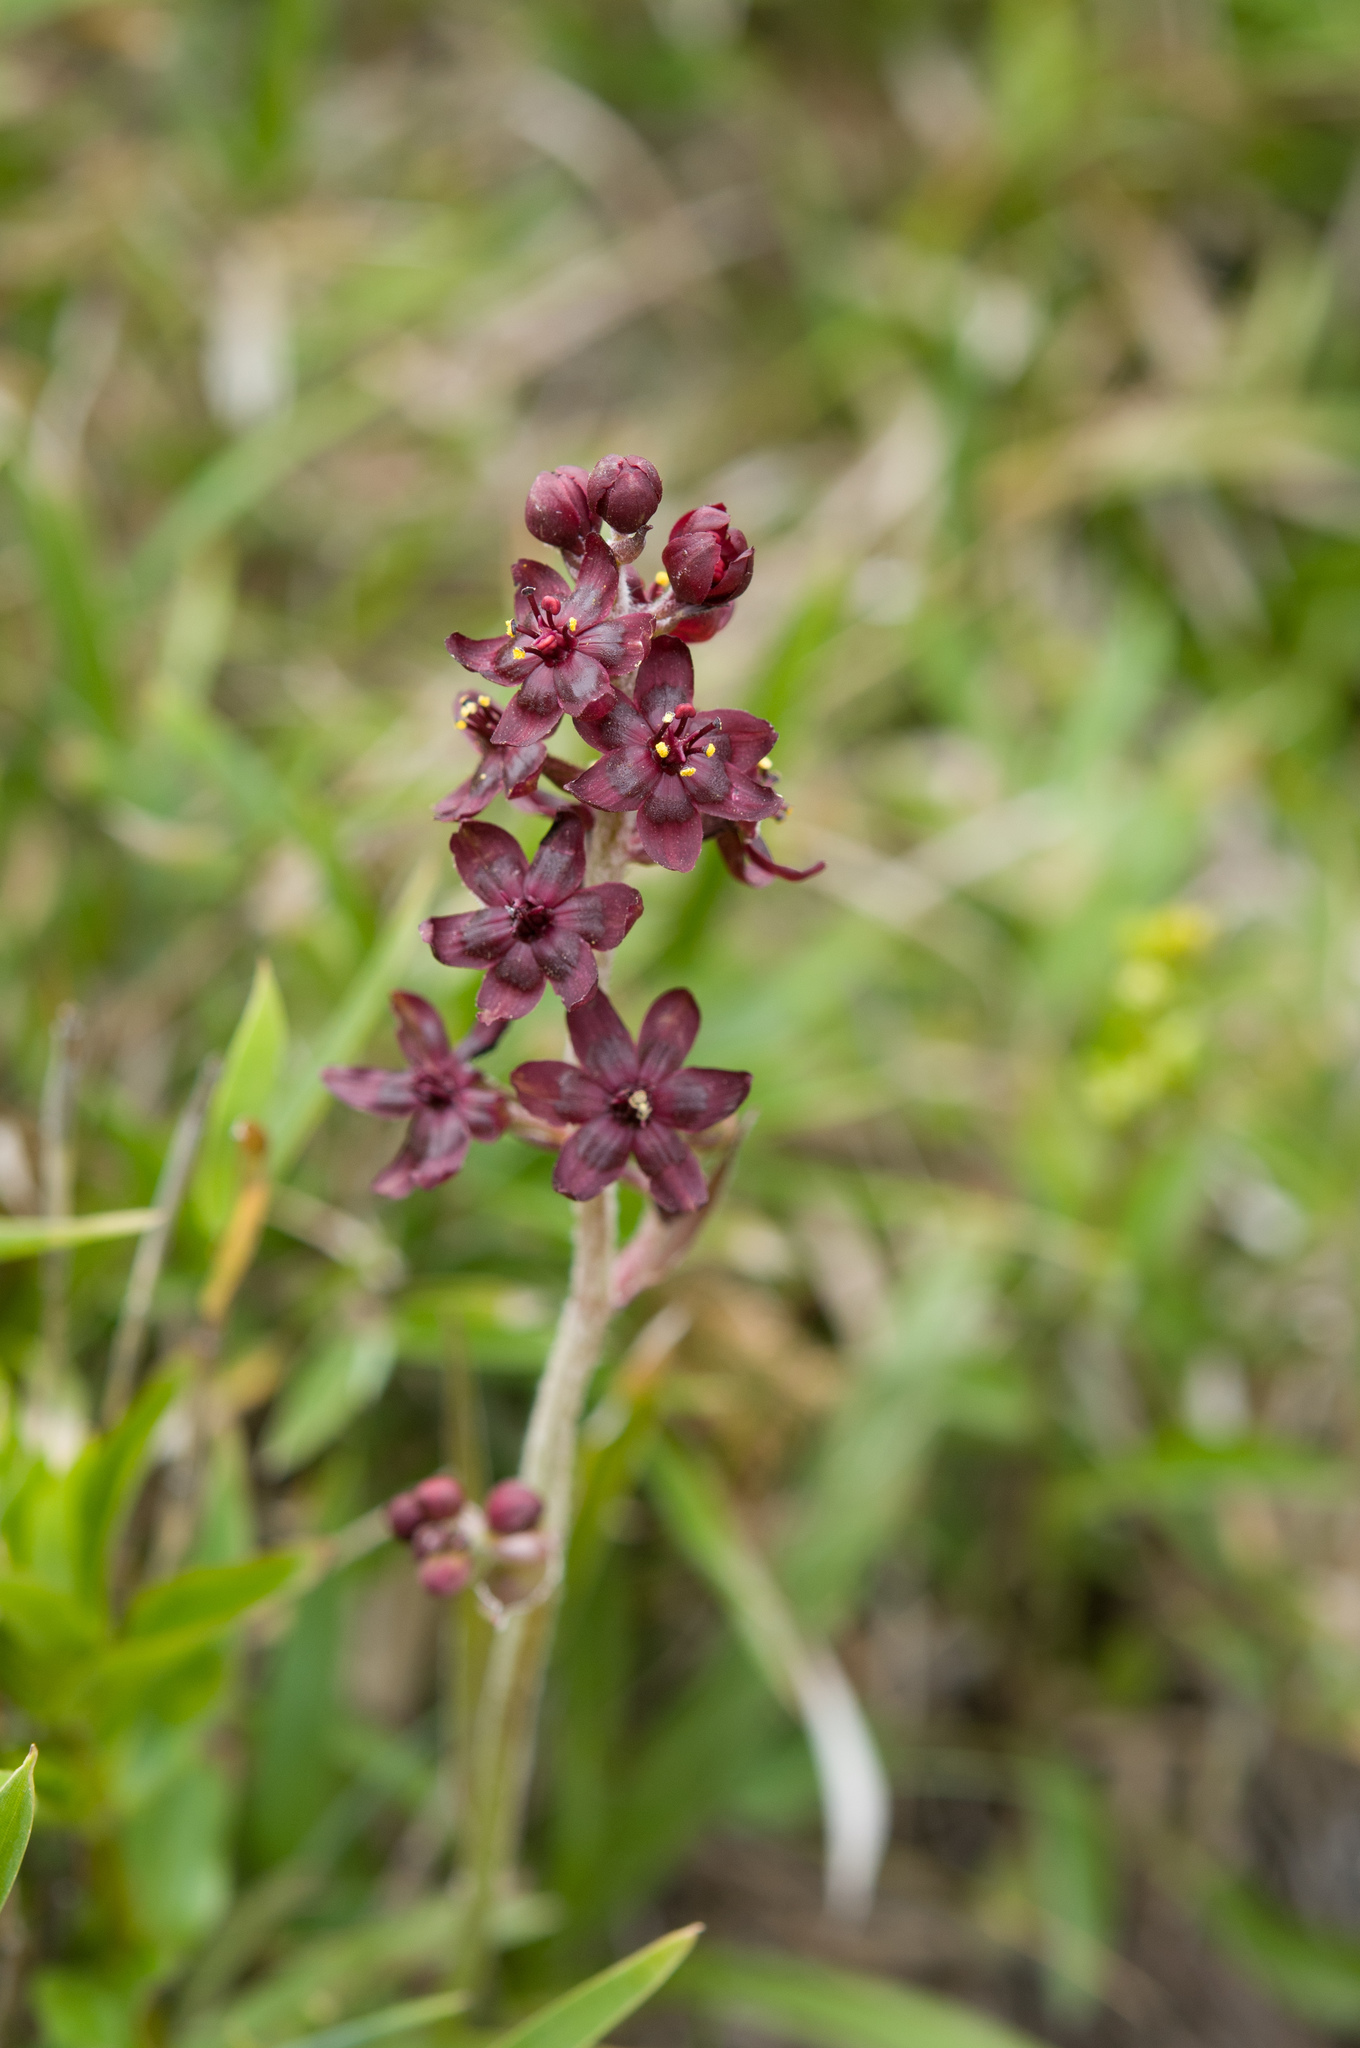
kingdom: Plantae
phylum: Tracheophyta
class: Liliopsida
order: Liliales
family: Melanthiaceae
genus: Veratrum
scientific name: Veratrum formosanum
